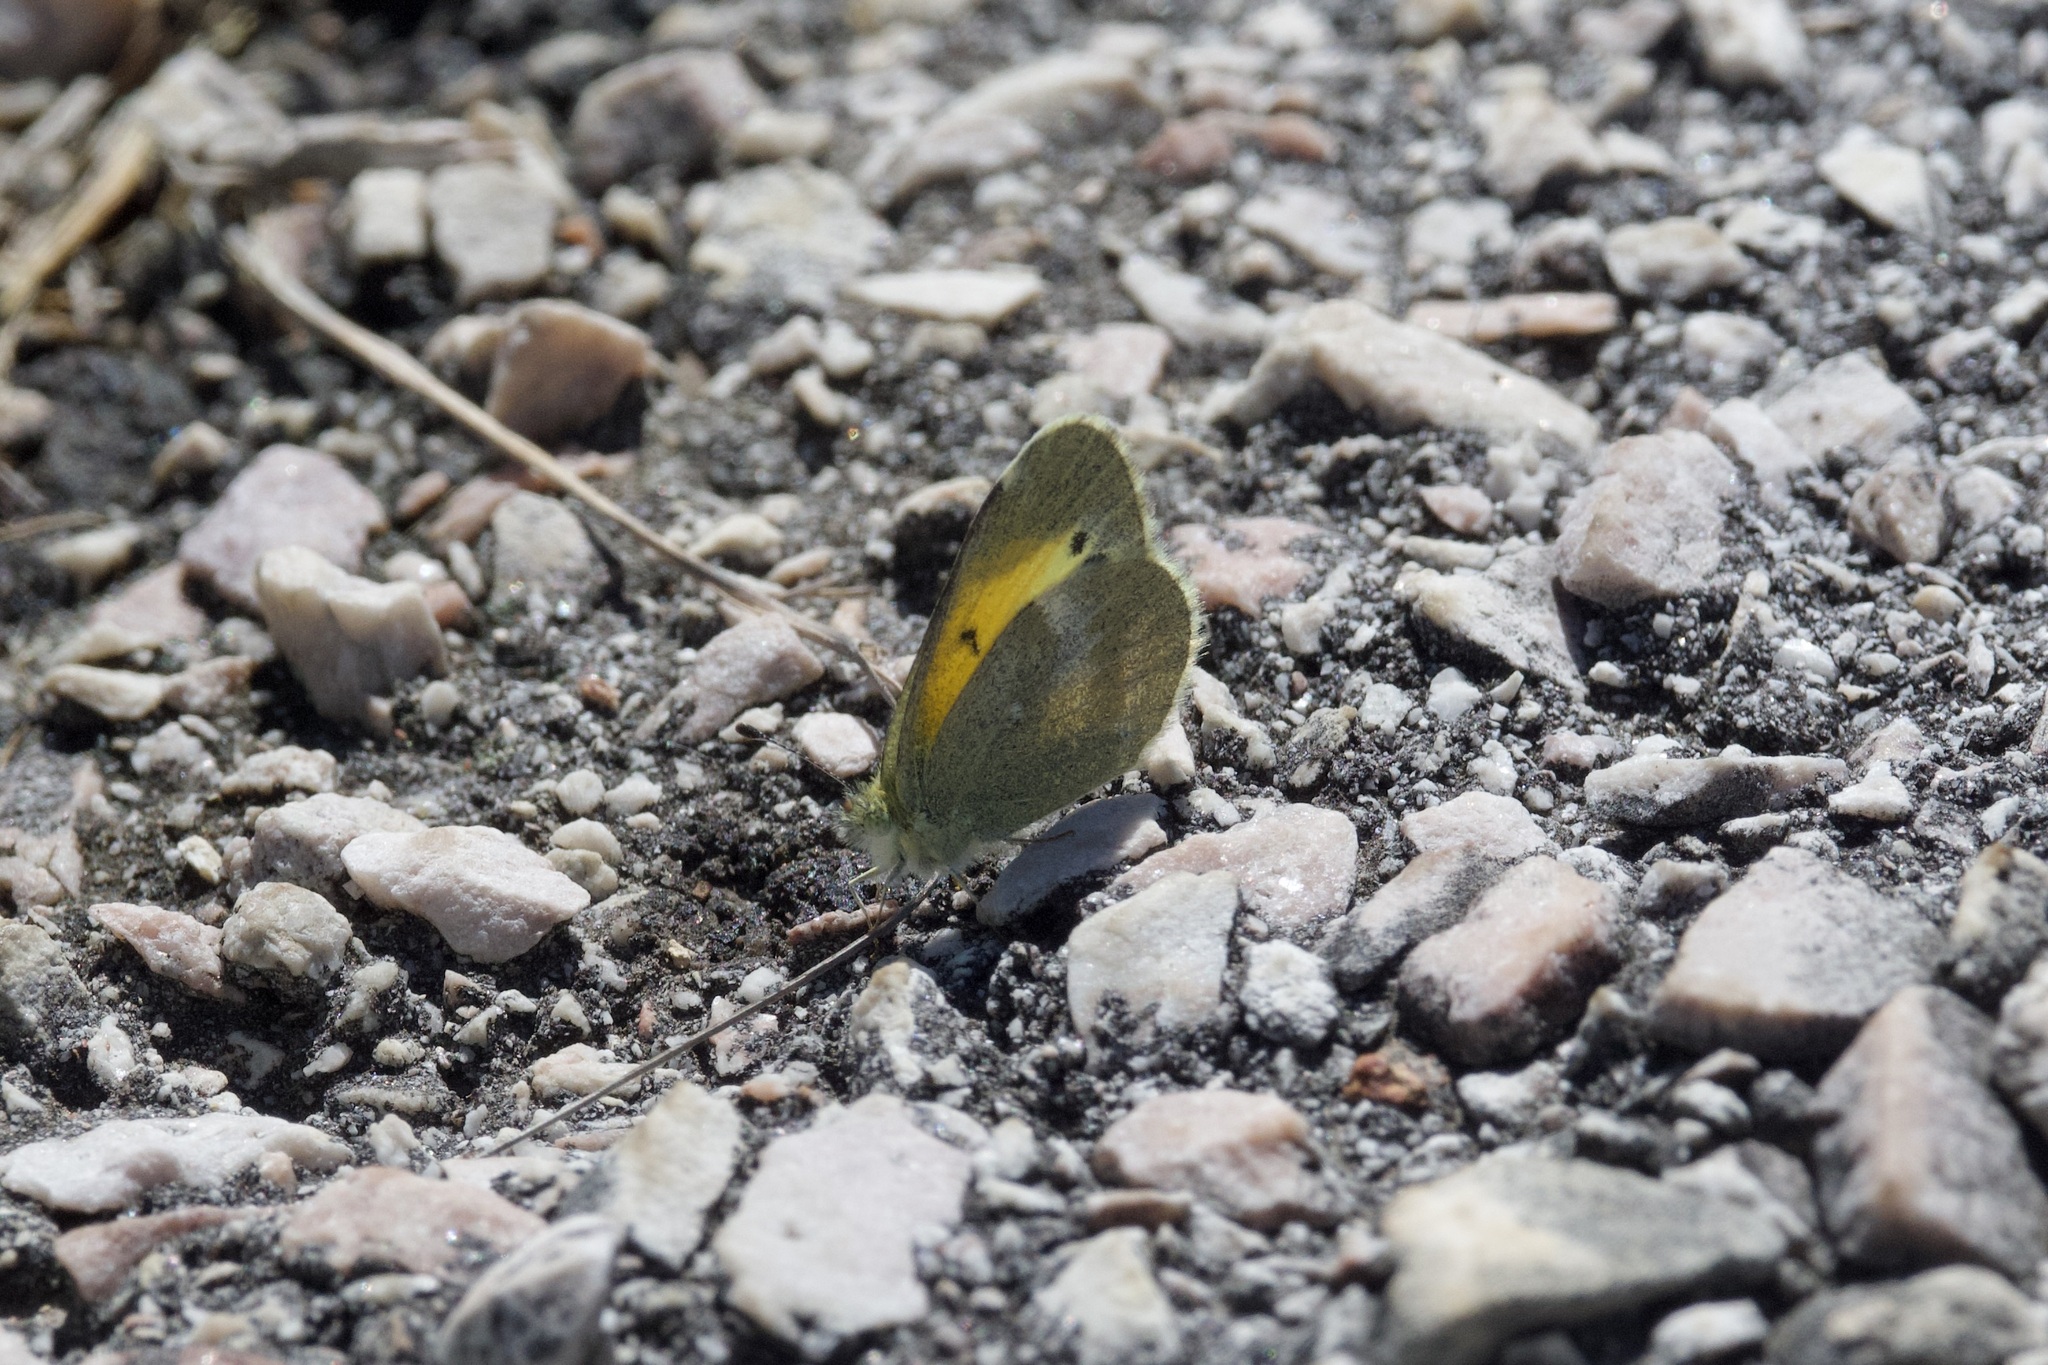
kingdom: Animalia
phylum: Arthropoda
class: Insecta
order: Lepidoptera
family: Pieridae
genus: Nathalis
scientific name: Nathalis iole
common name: Dainty sulphur
